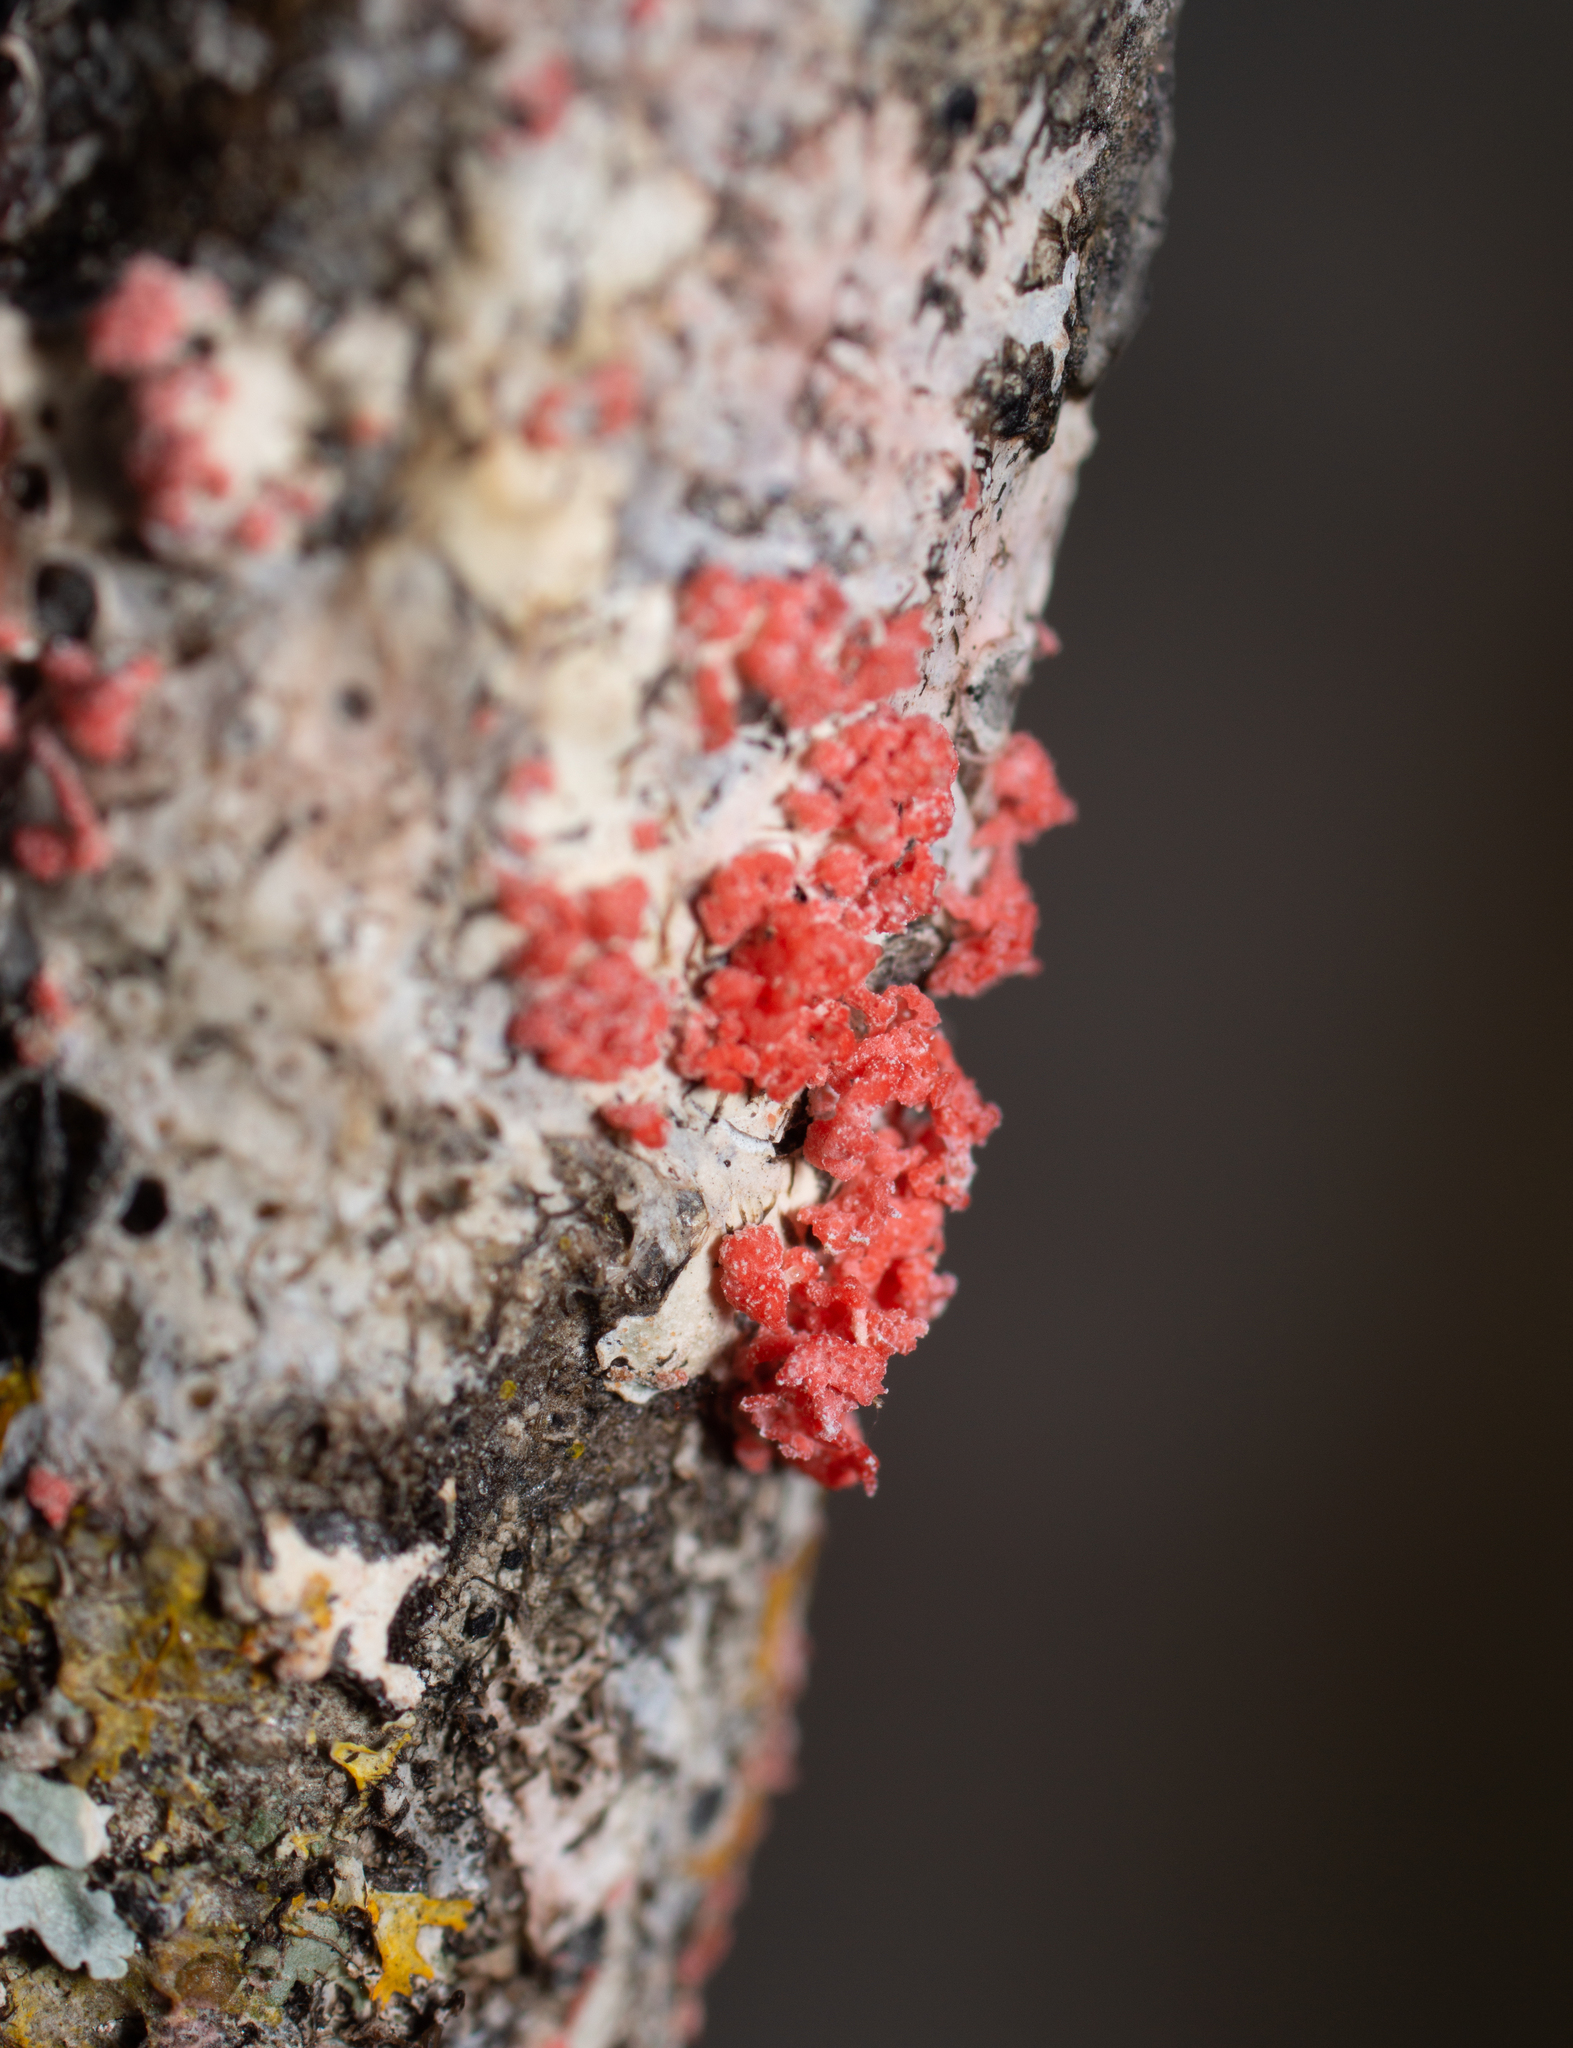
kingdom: Fungi
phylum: Basidiomycota
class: Agaricomycetes
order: Corticiales
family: Corticiaceae
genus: Marchandiomyces
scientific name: Marchandiomyces corallinus
